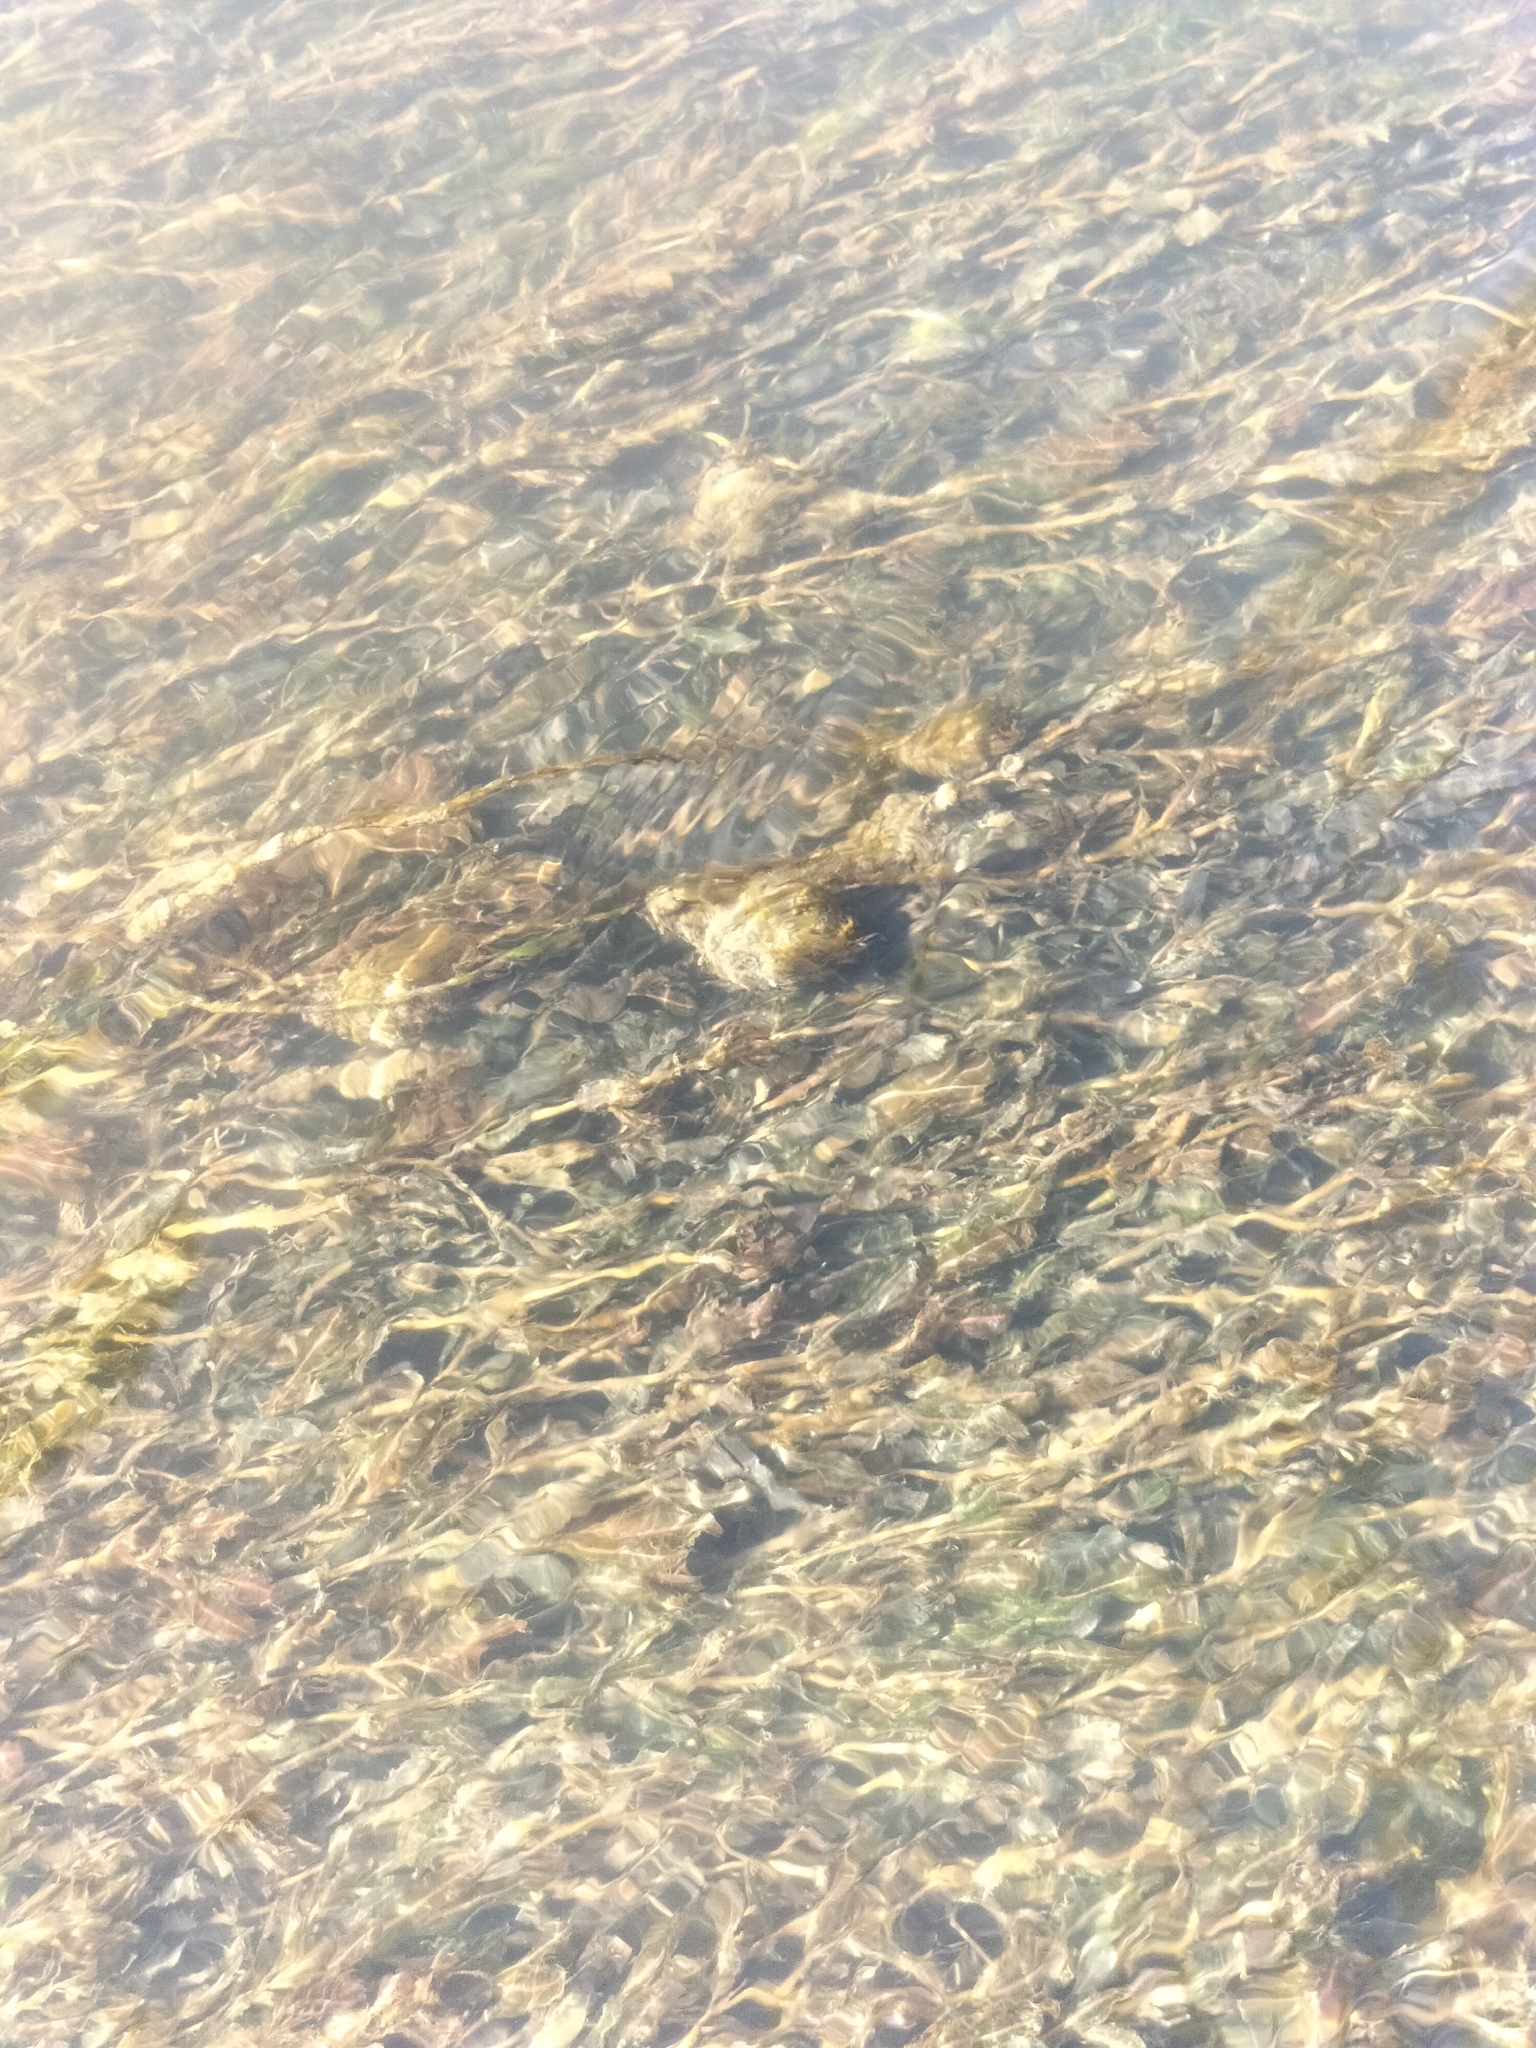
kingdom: Plantae
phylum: Tracheophyta
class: Liliopsida
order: Alismatales
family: Potamogetonaceae
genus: Potamogeton
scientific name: Potamogeton crispus
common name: Curled pondweed
